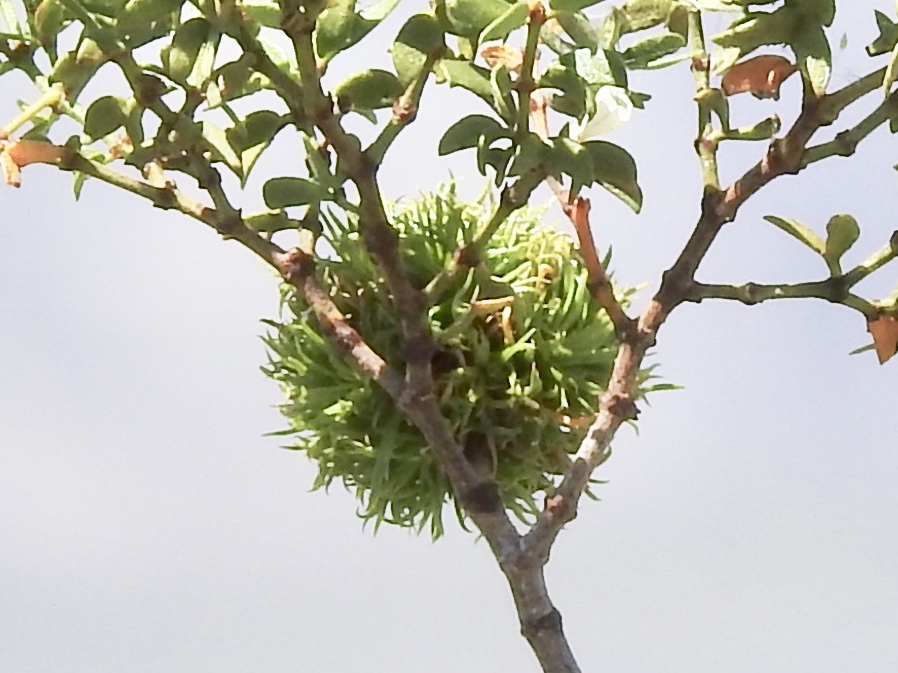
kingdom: Animalia
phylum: Arthropoda
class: Insecta
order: Diptera
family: Cecidomyiidae
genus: Asphondylia
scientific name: Asphondylia auripila
